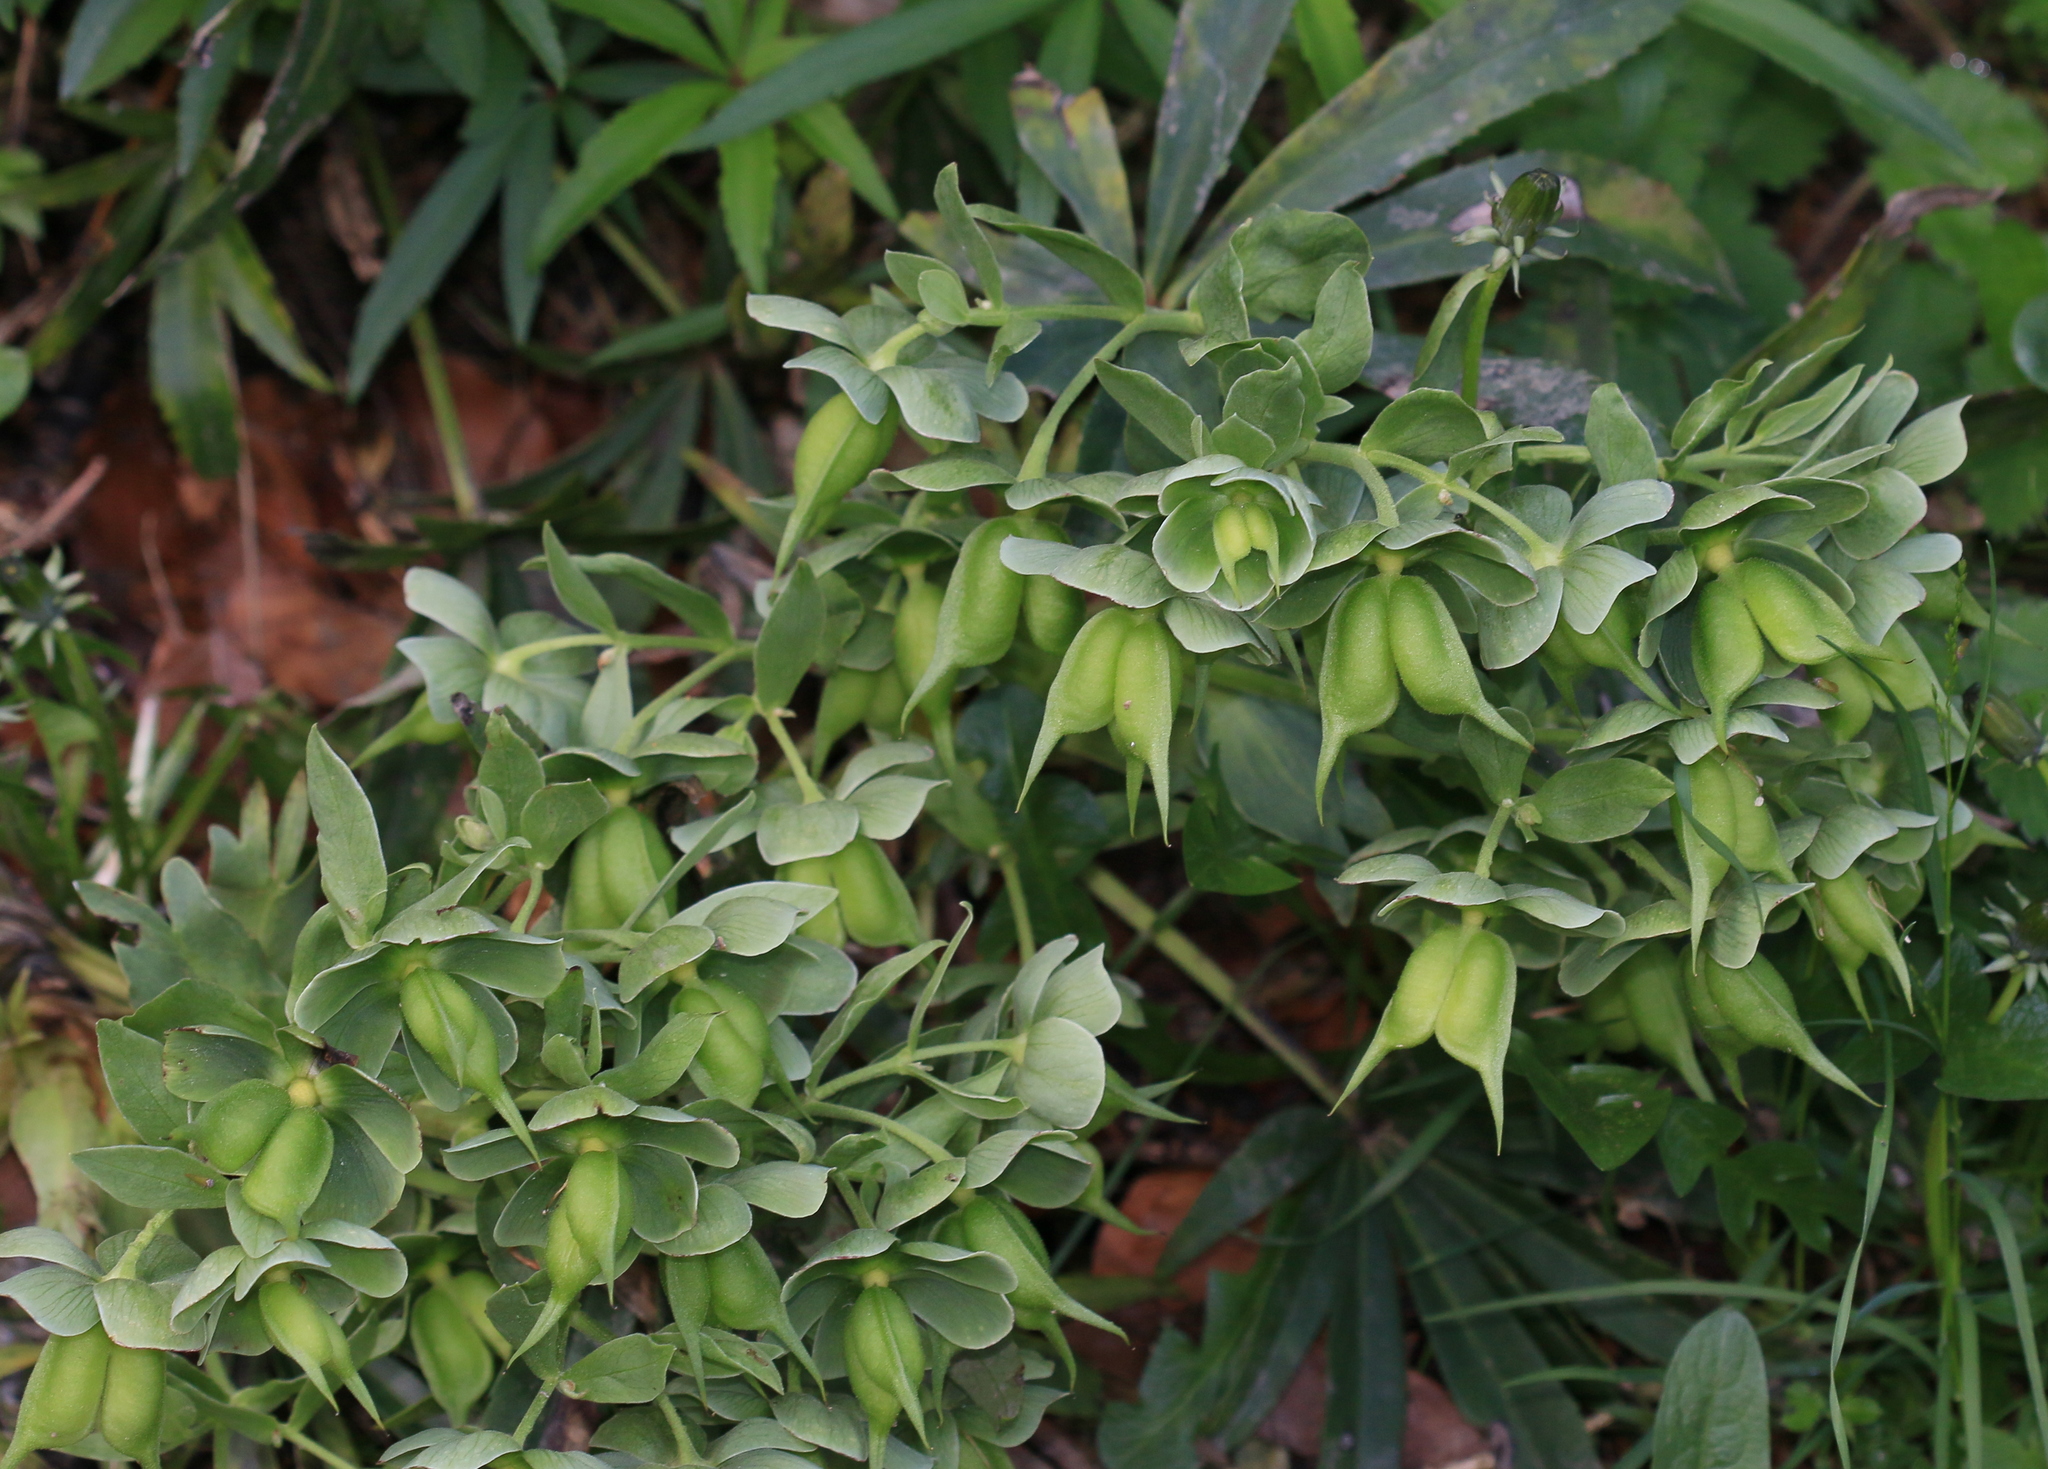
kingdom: Plantae
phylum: Tracheophyta
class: Magnoliopsida
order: Ranunculales
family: Ranunculaceae
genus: Helleborus
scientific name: Helleborus foetidus
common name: Stinking hellebore
